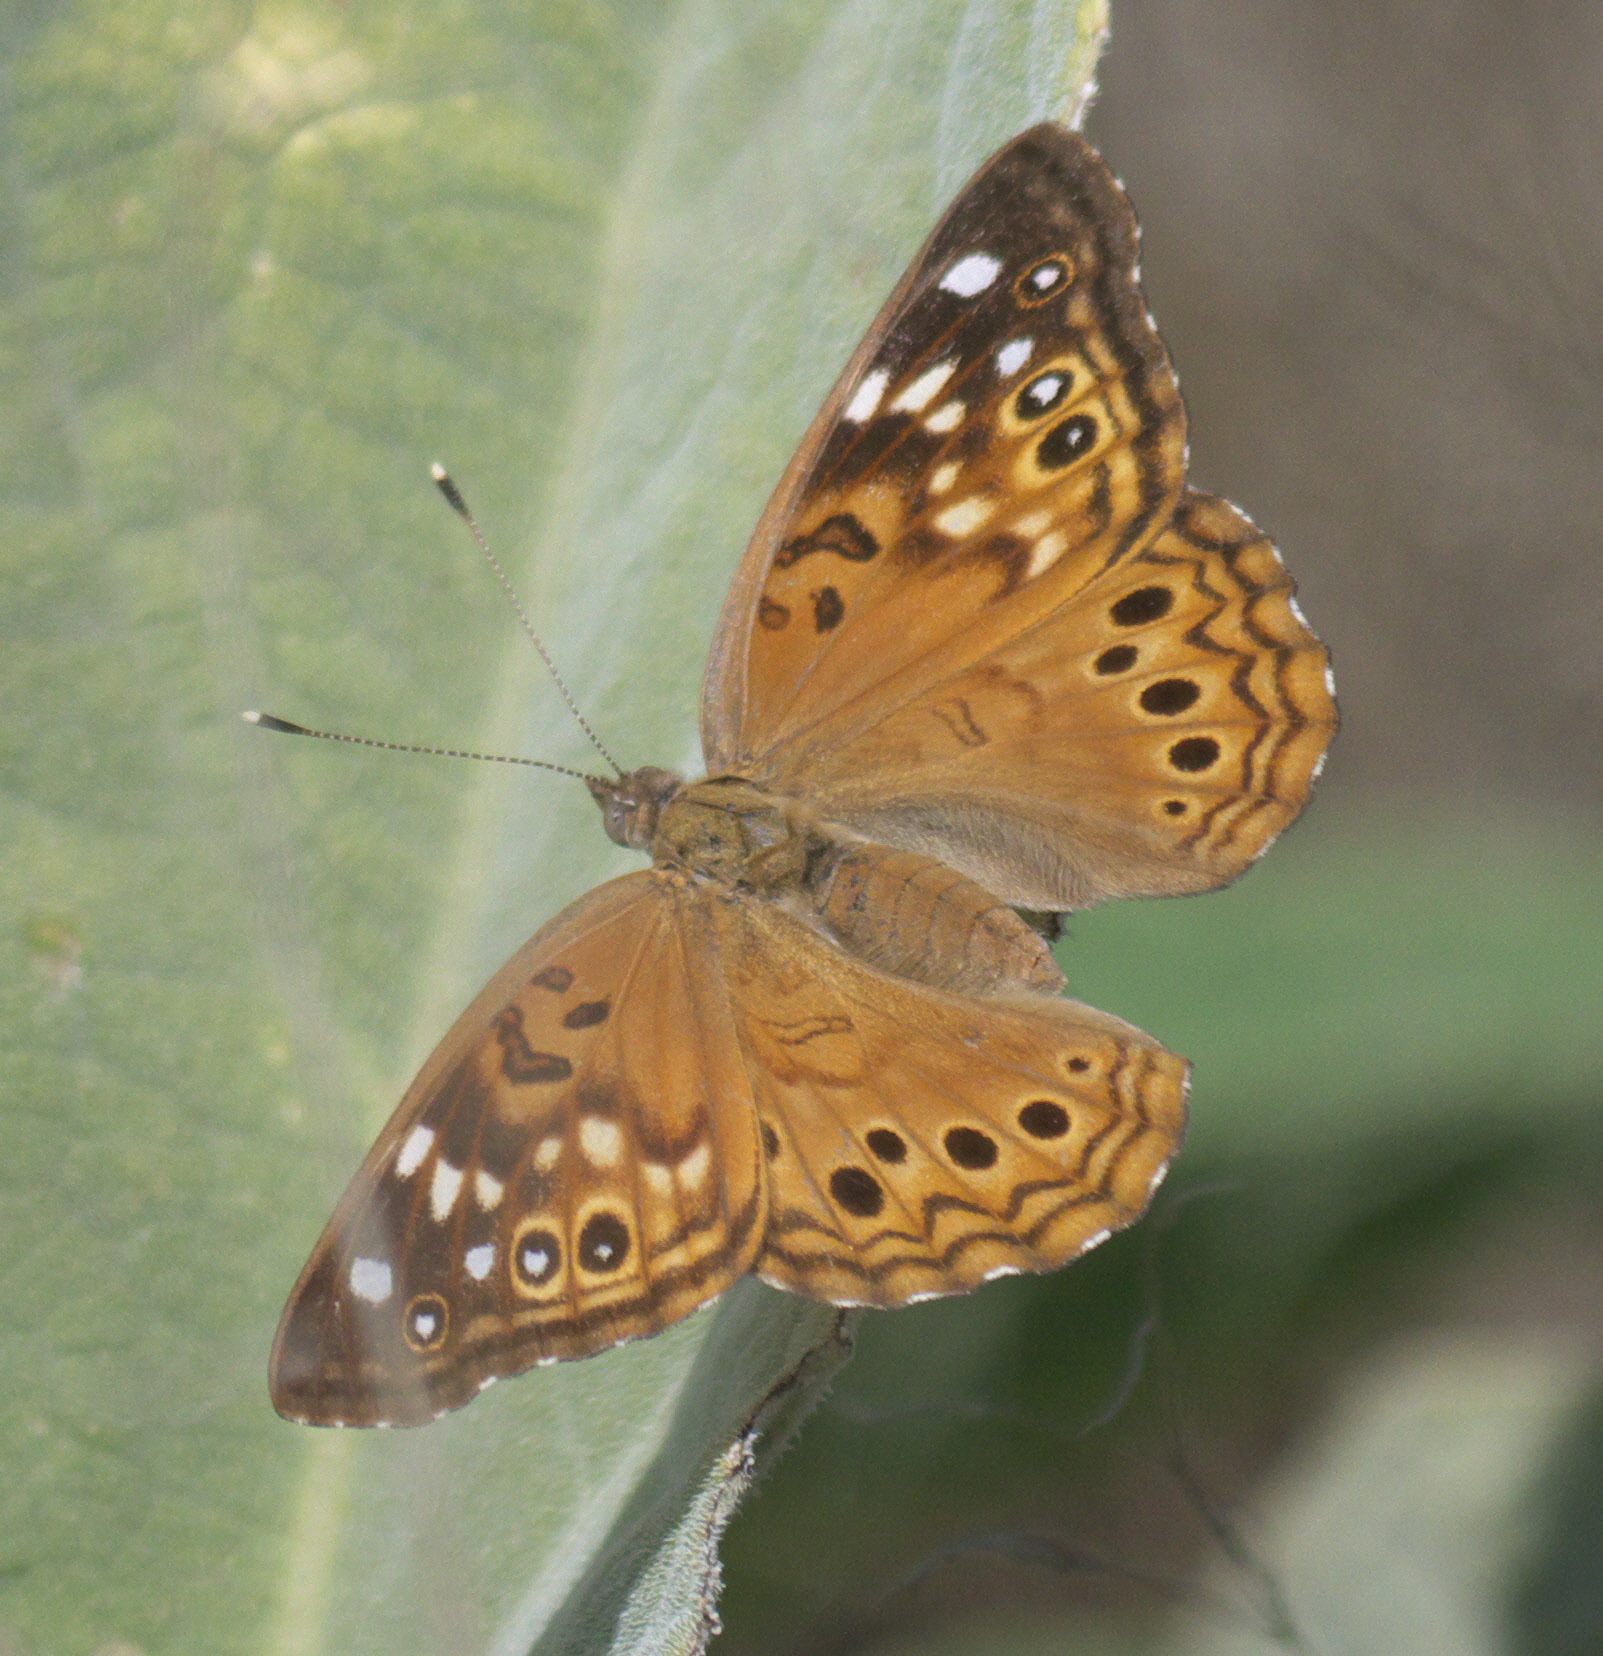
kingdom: Animalia
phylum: Arthropoda
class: Insecta
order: Lepidoptera
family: Nymphalidae
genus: Asterocampa
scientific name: Asterocampa leilia
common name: Empress leilia
